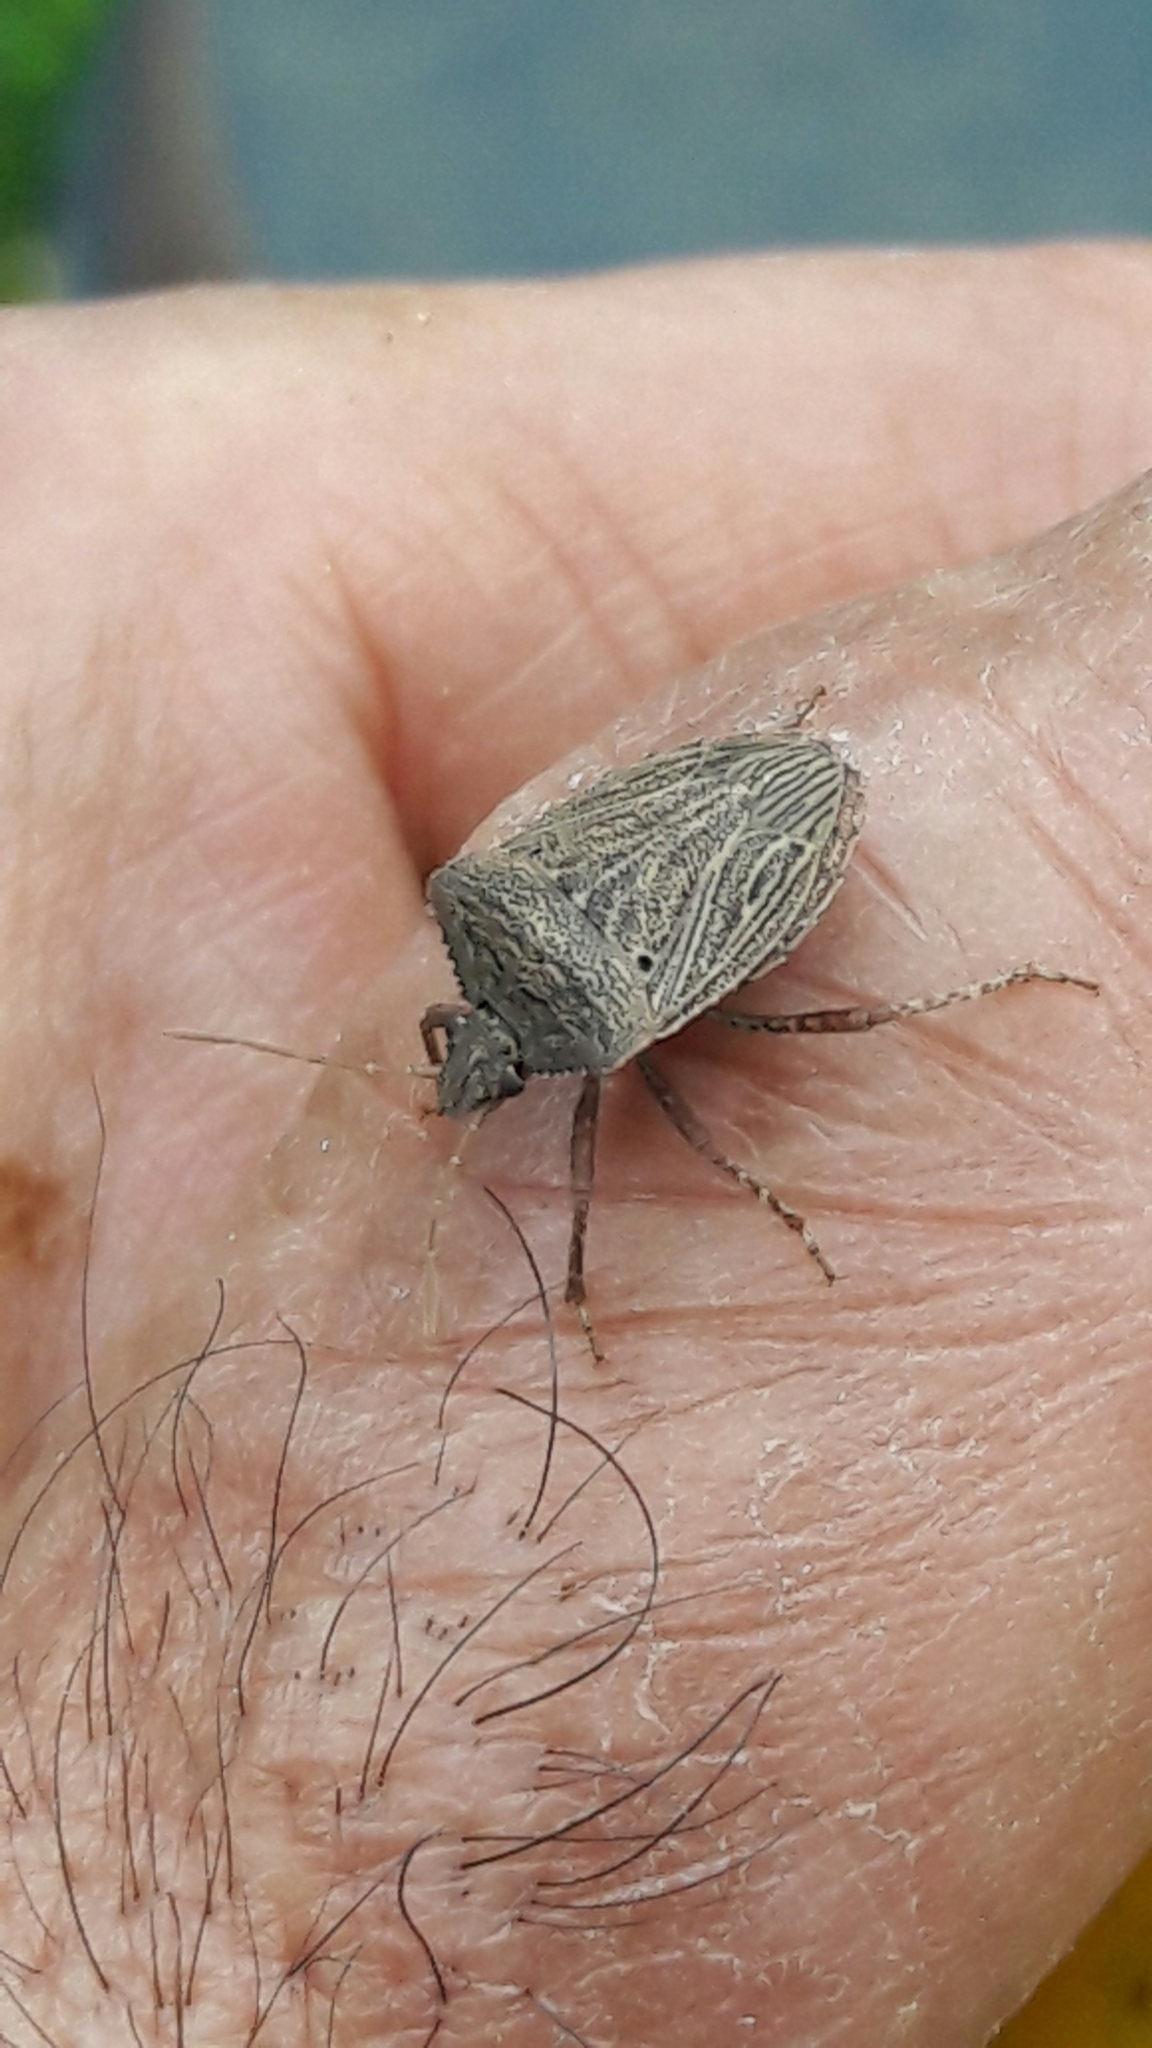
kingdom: Animalia
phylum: Arthropoda
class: Insecta
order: Hemiptera
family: Pentatomidae
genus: Picromerus
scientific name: Picromerus griseus
